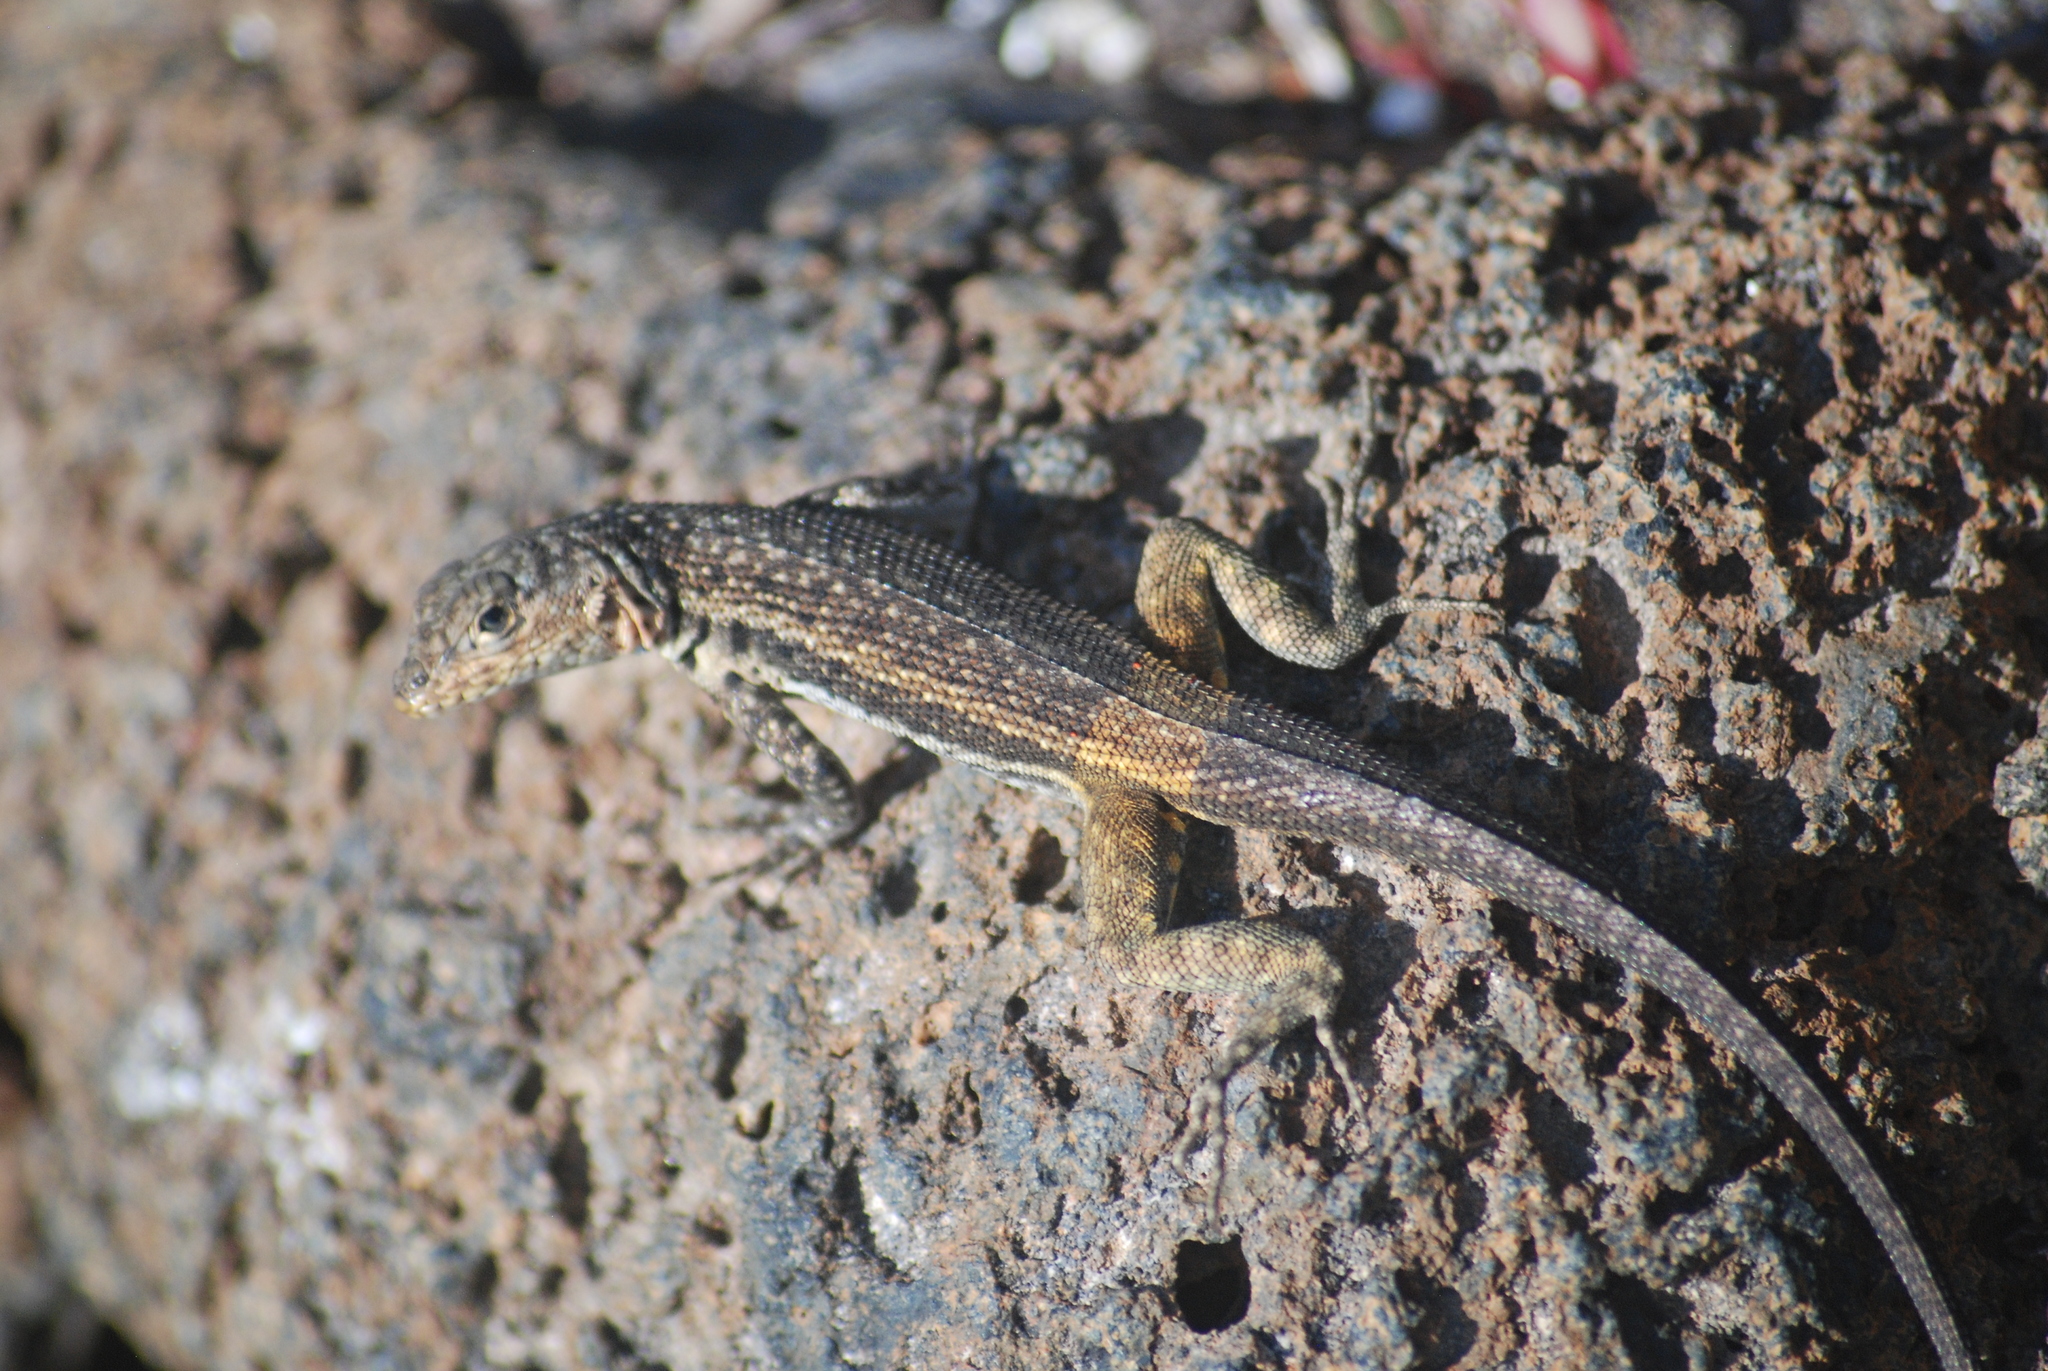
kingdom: Animalia
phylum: Chordata
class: Squamata
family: Tropiduridae
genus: Microlophus
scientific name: Microlophus jacobii
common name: Santiago lava lizard
